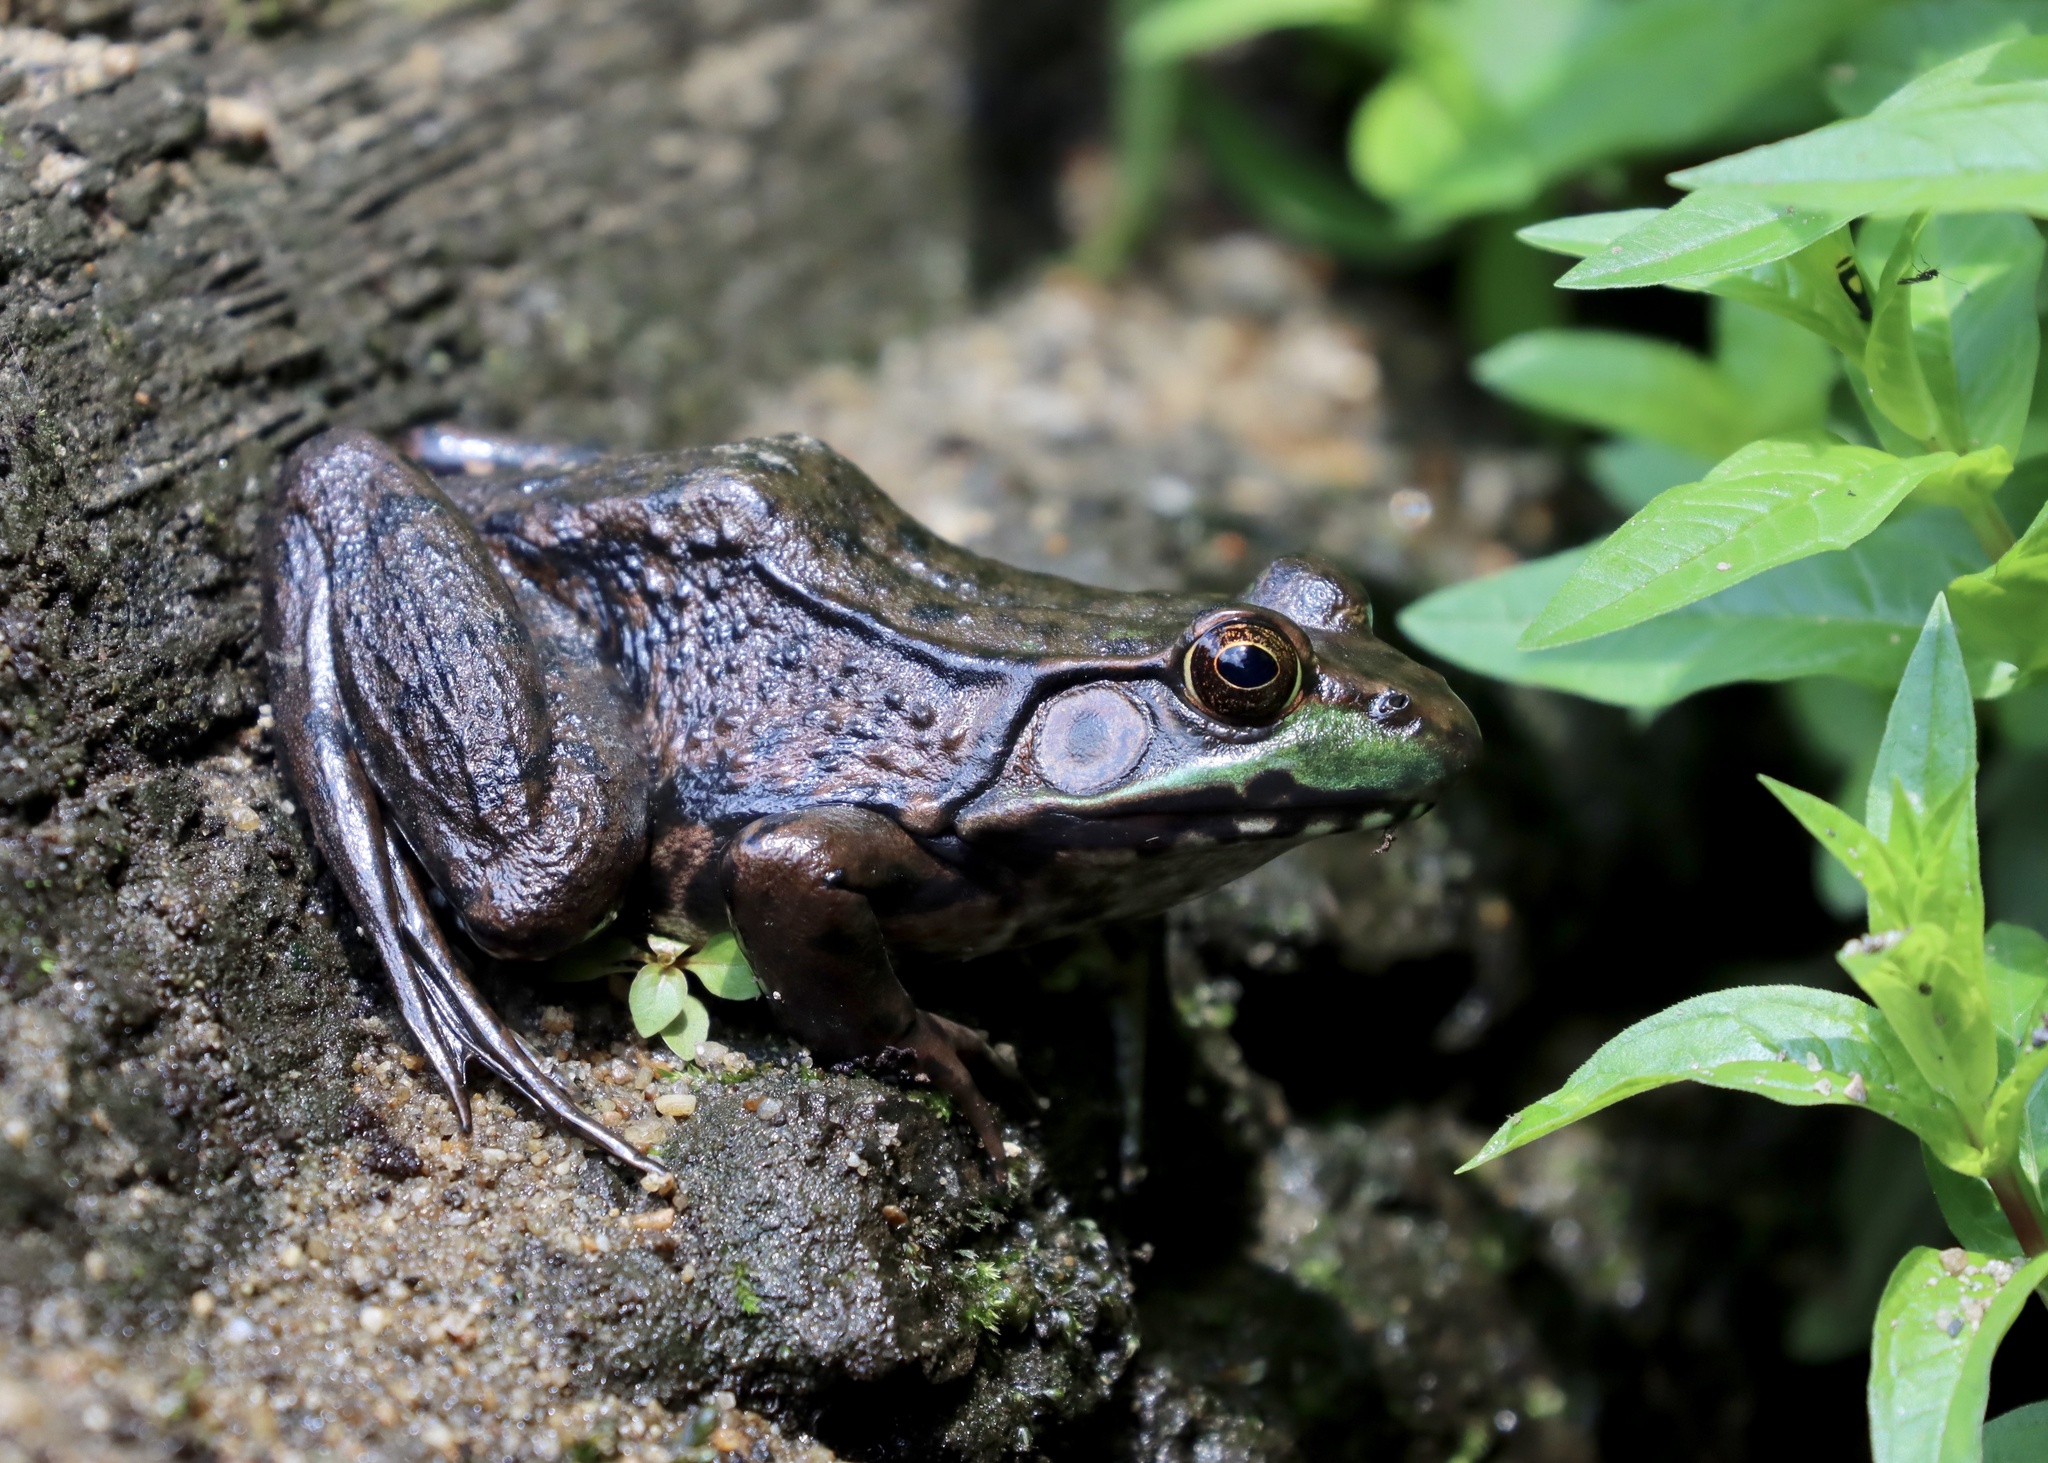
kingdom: Animalia
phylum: Chordata
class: Amphibia
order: Anura
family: Ranidae
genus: Lithobates
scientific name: Lithobates clamitans
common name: Green frog
